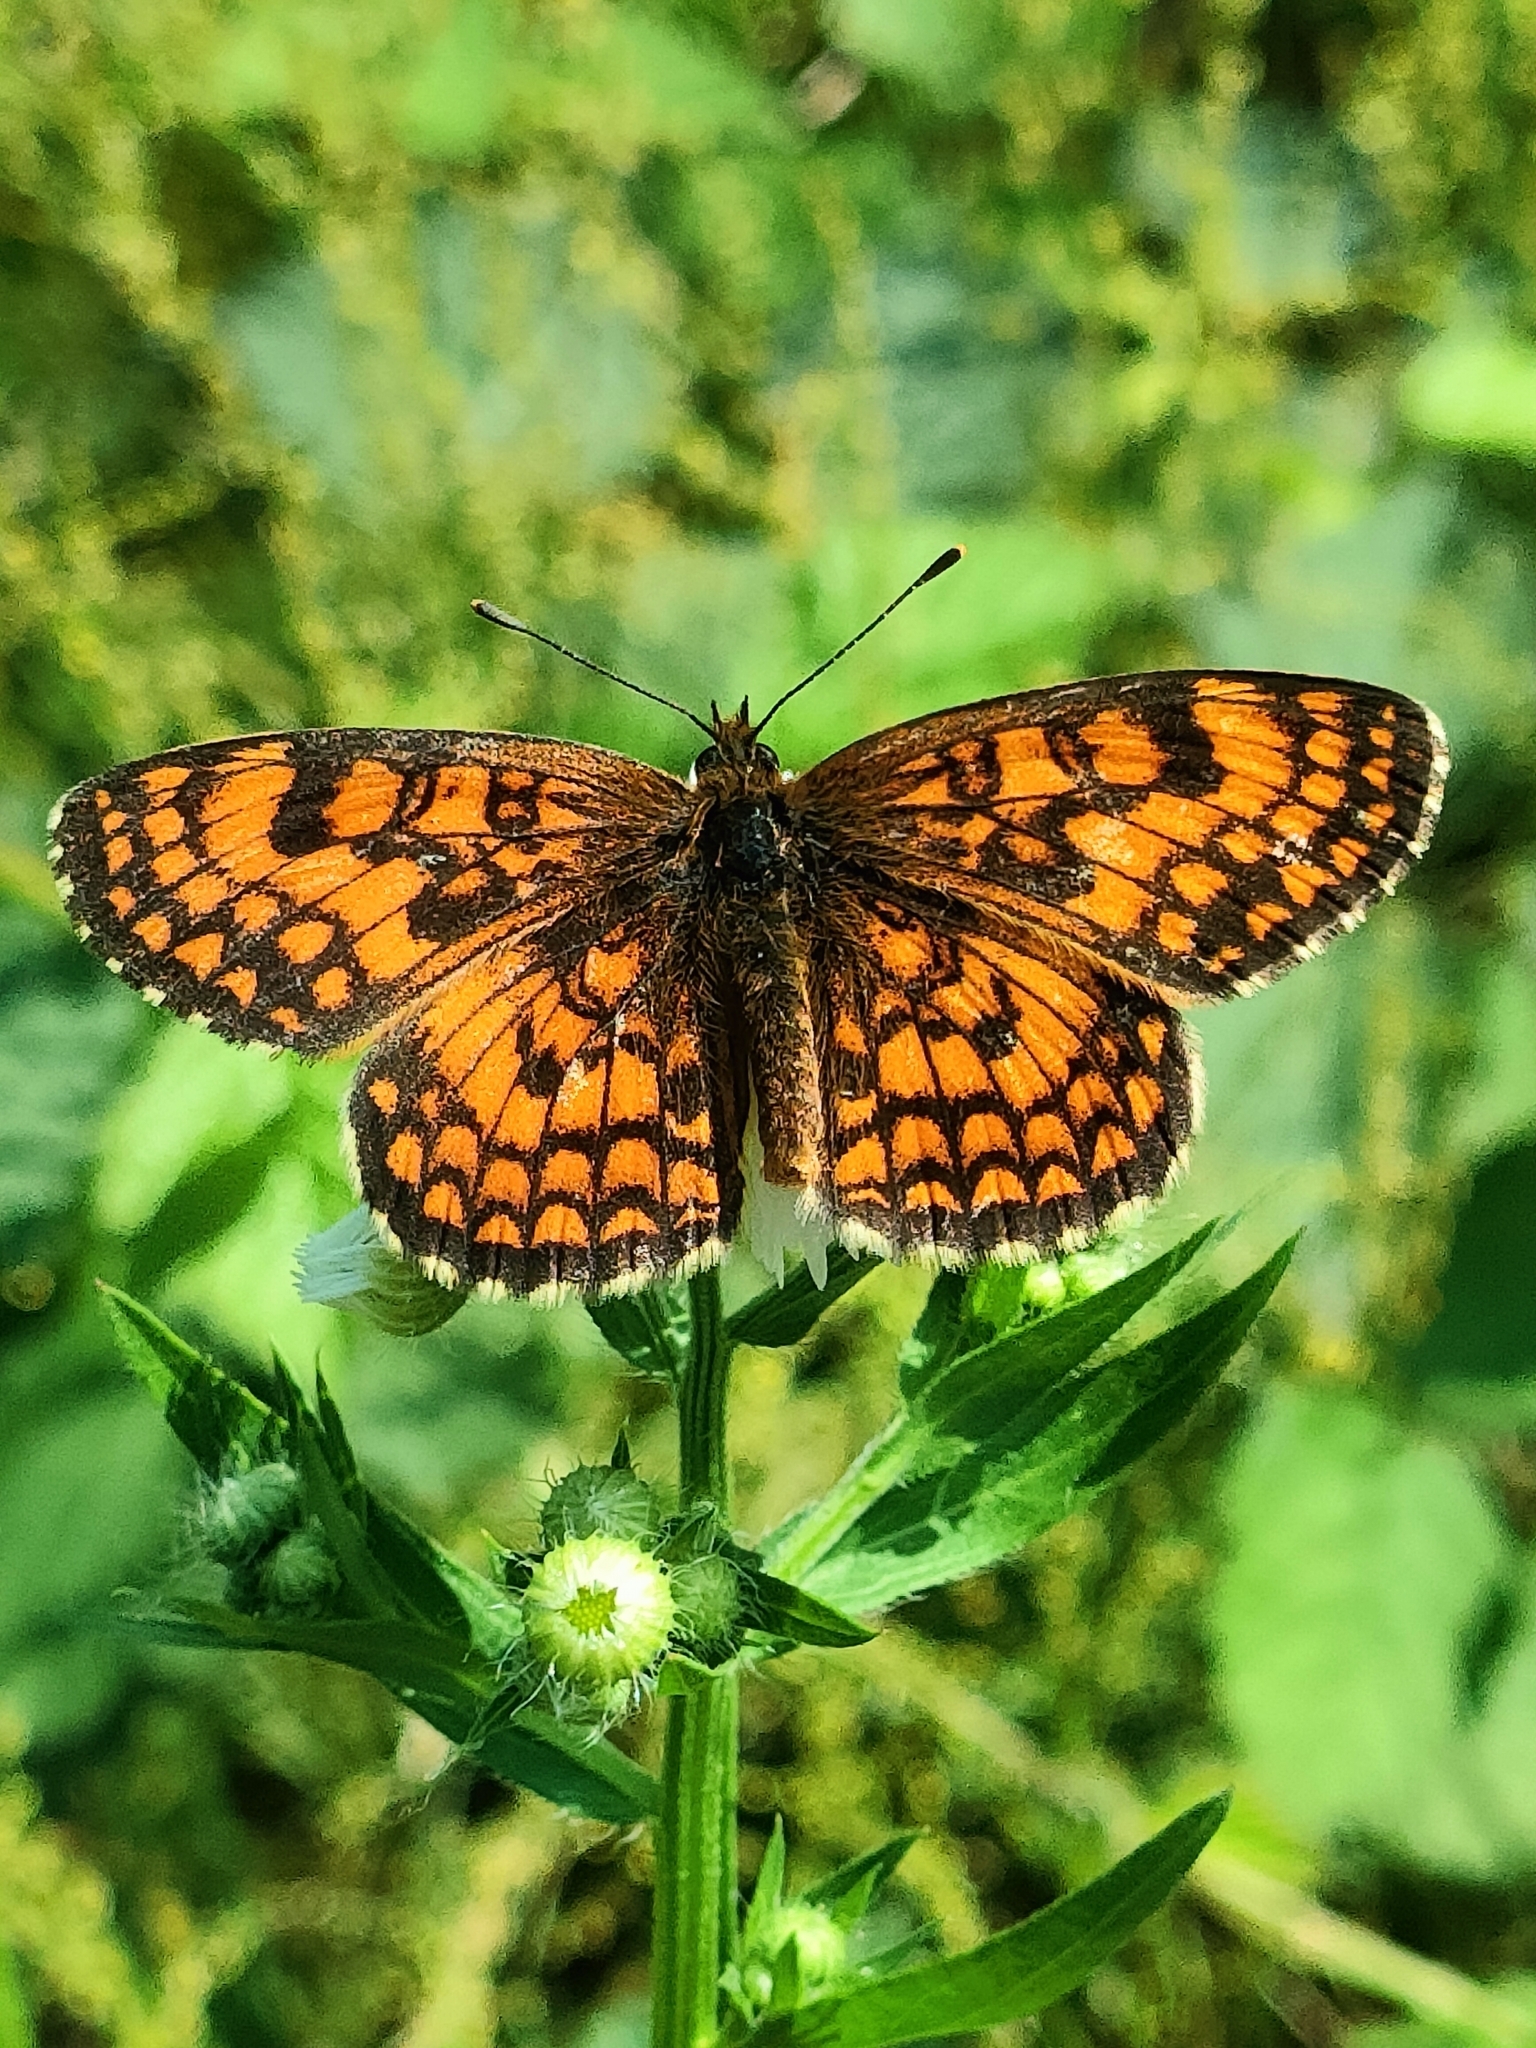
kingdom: Animalia
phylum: Arthropoda
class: Insecta
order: Lepidoptera
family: Nymphalidae
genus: Mellicta
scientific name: Mellicta athalia
